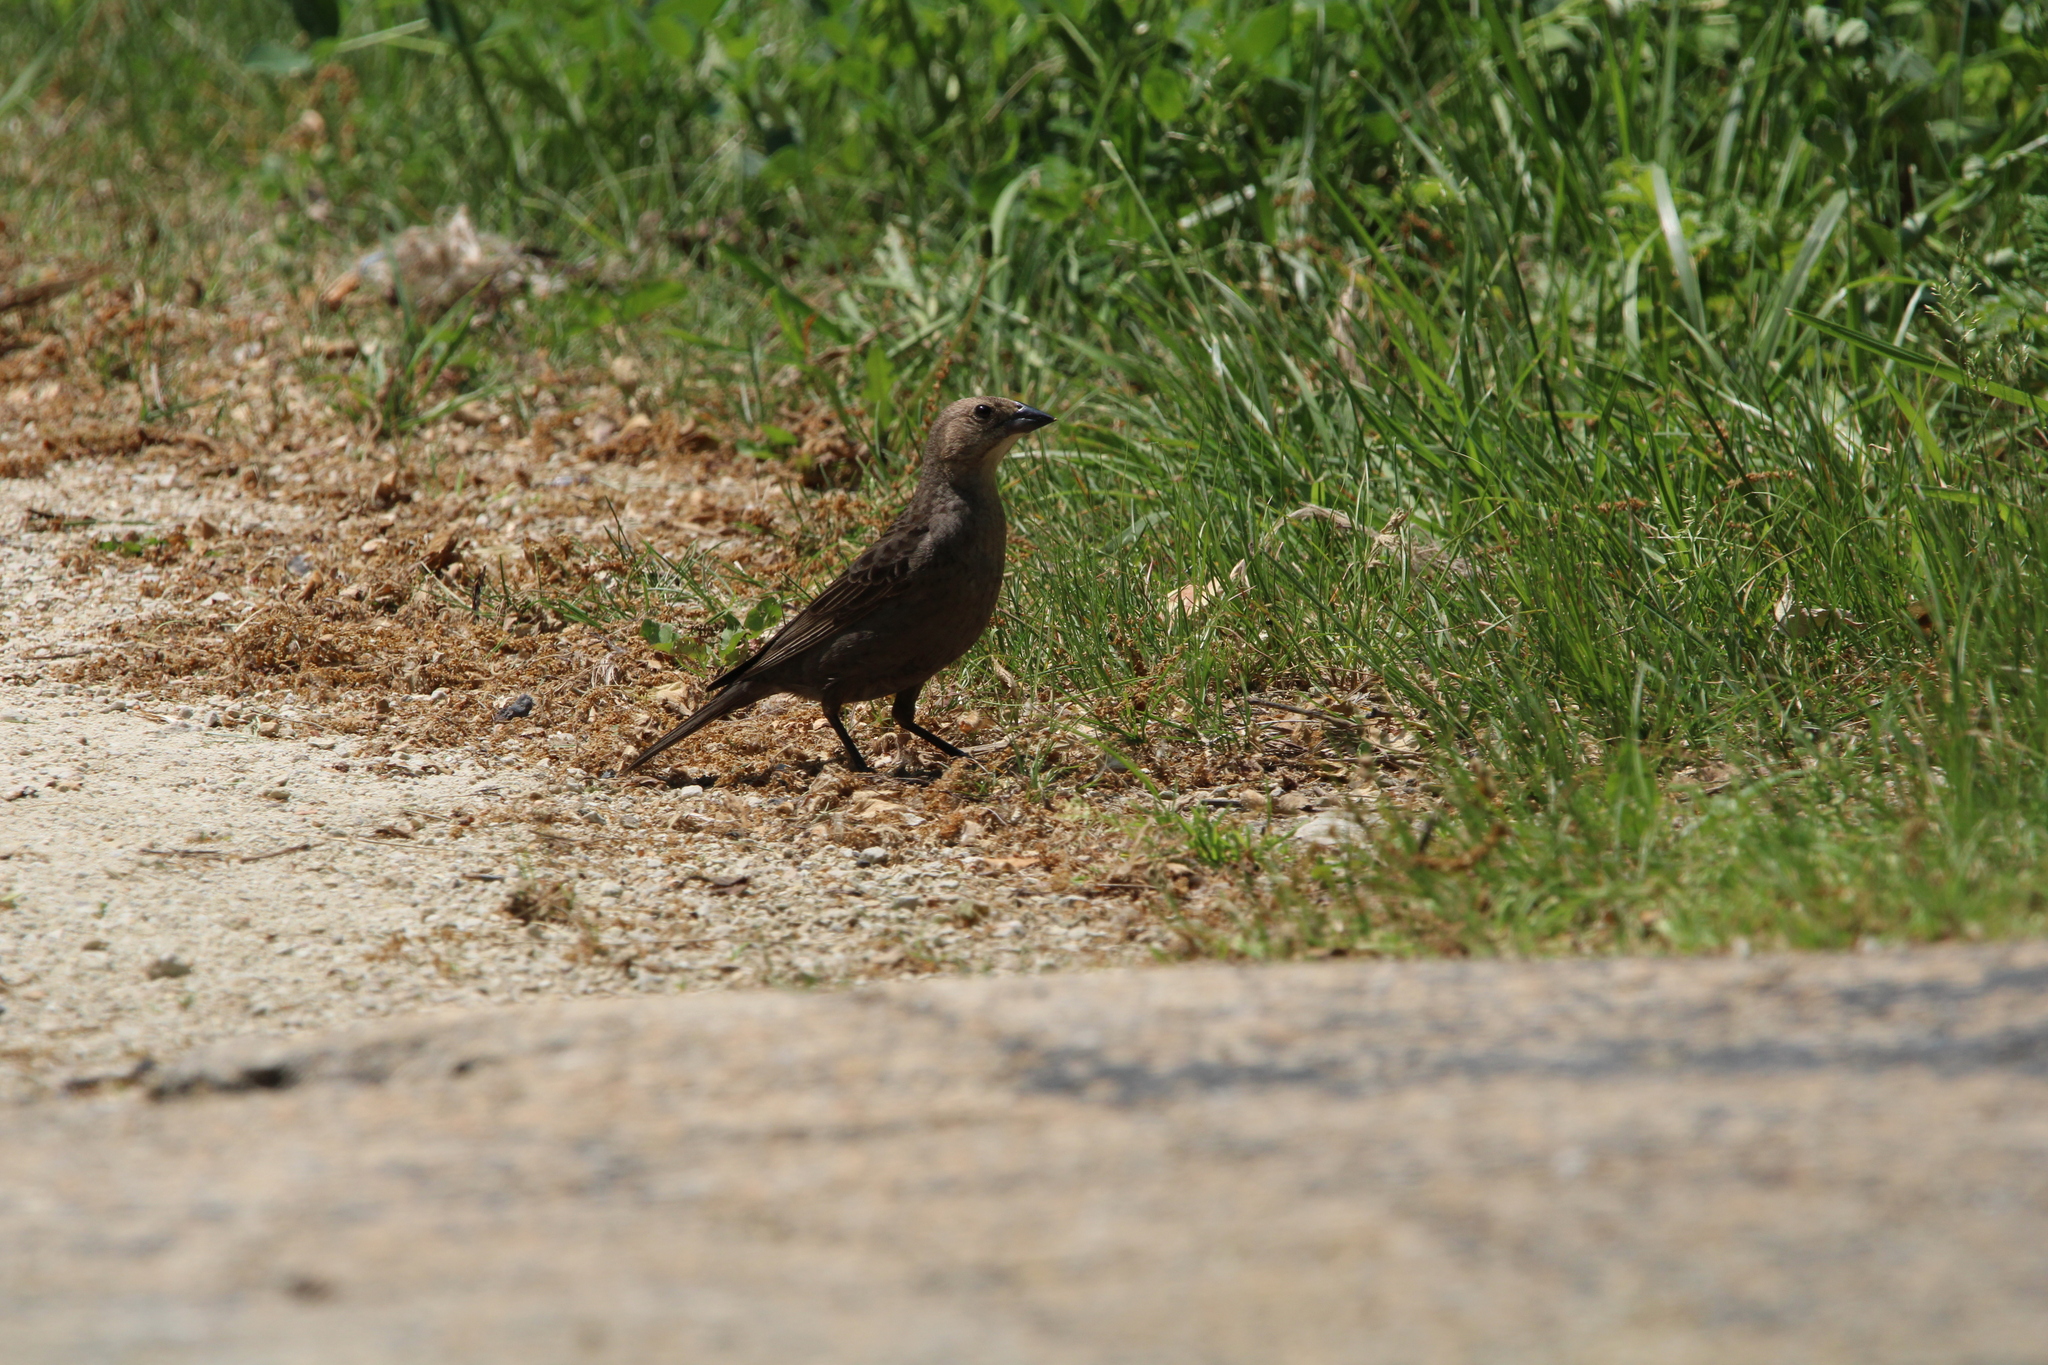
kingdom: Animalia
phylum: Chordata
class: Aves
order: Passeriformes
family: Icteridae
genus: Molothrus
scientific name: Molothrus ater
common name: Brown-headed cowbird
